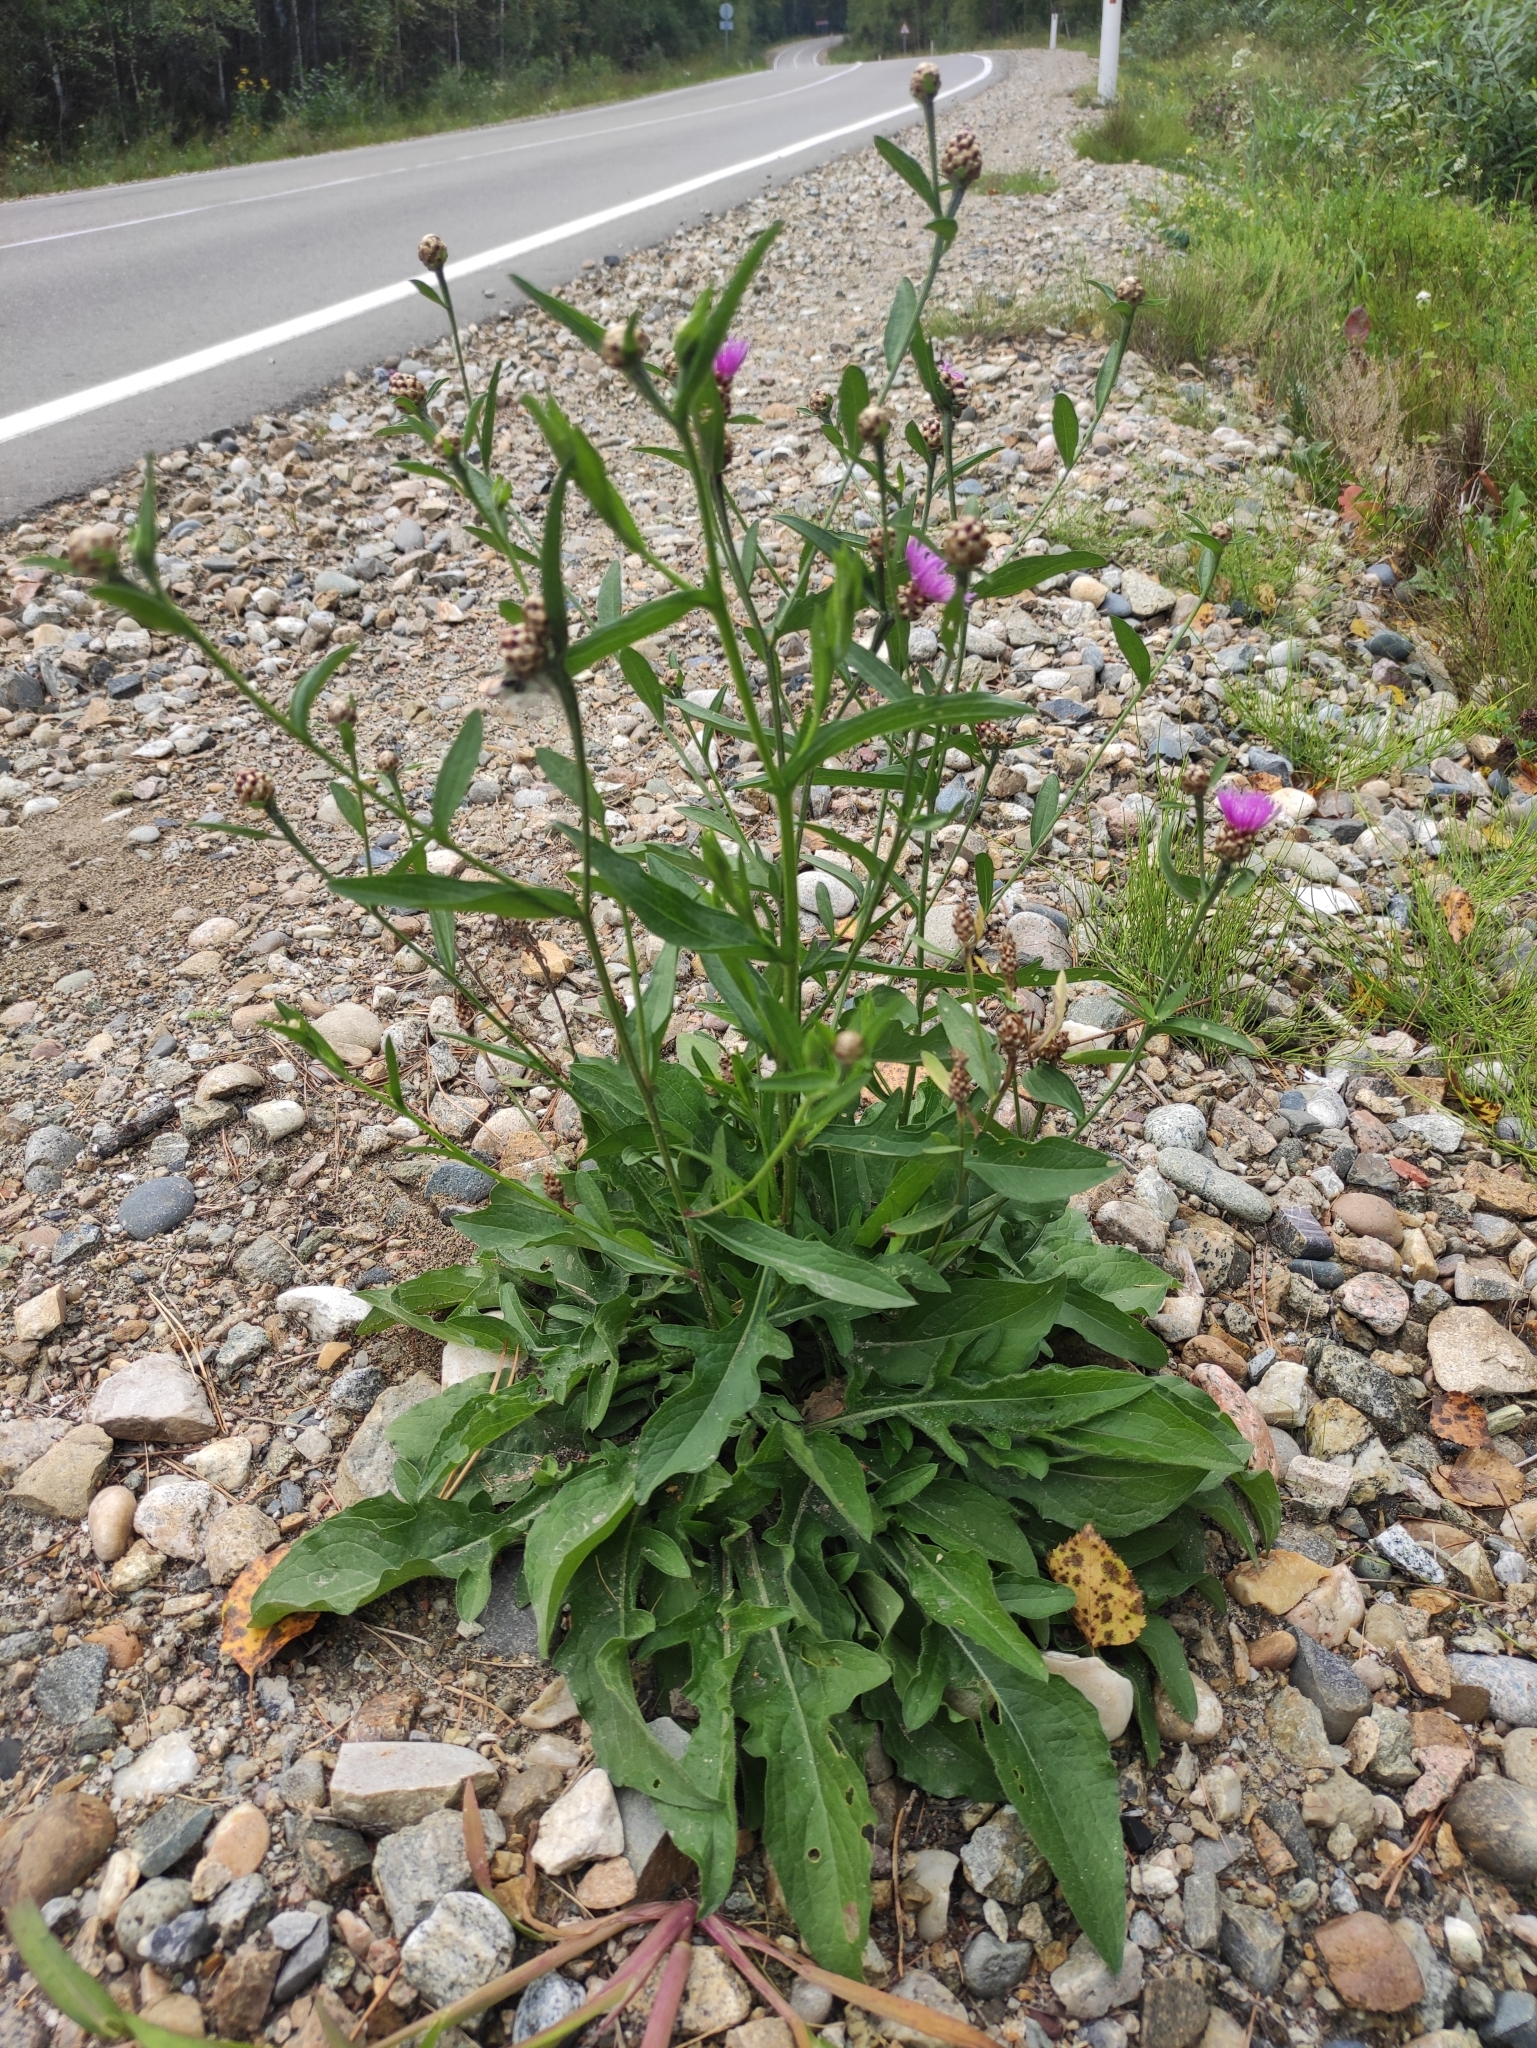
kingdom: Plantae
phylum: Tracheophyta
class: Magnoliopsida
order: Asterales
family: Asteraceae
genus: Centaurea
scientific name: Centaurea jacea
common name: Brown knapweed
